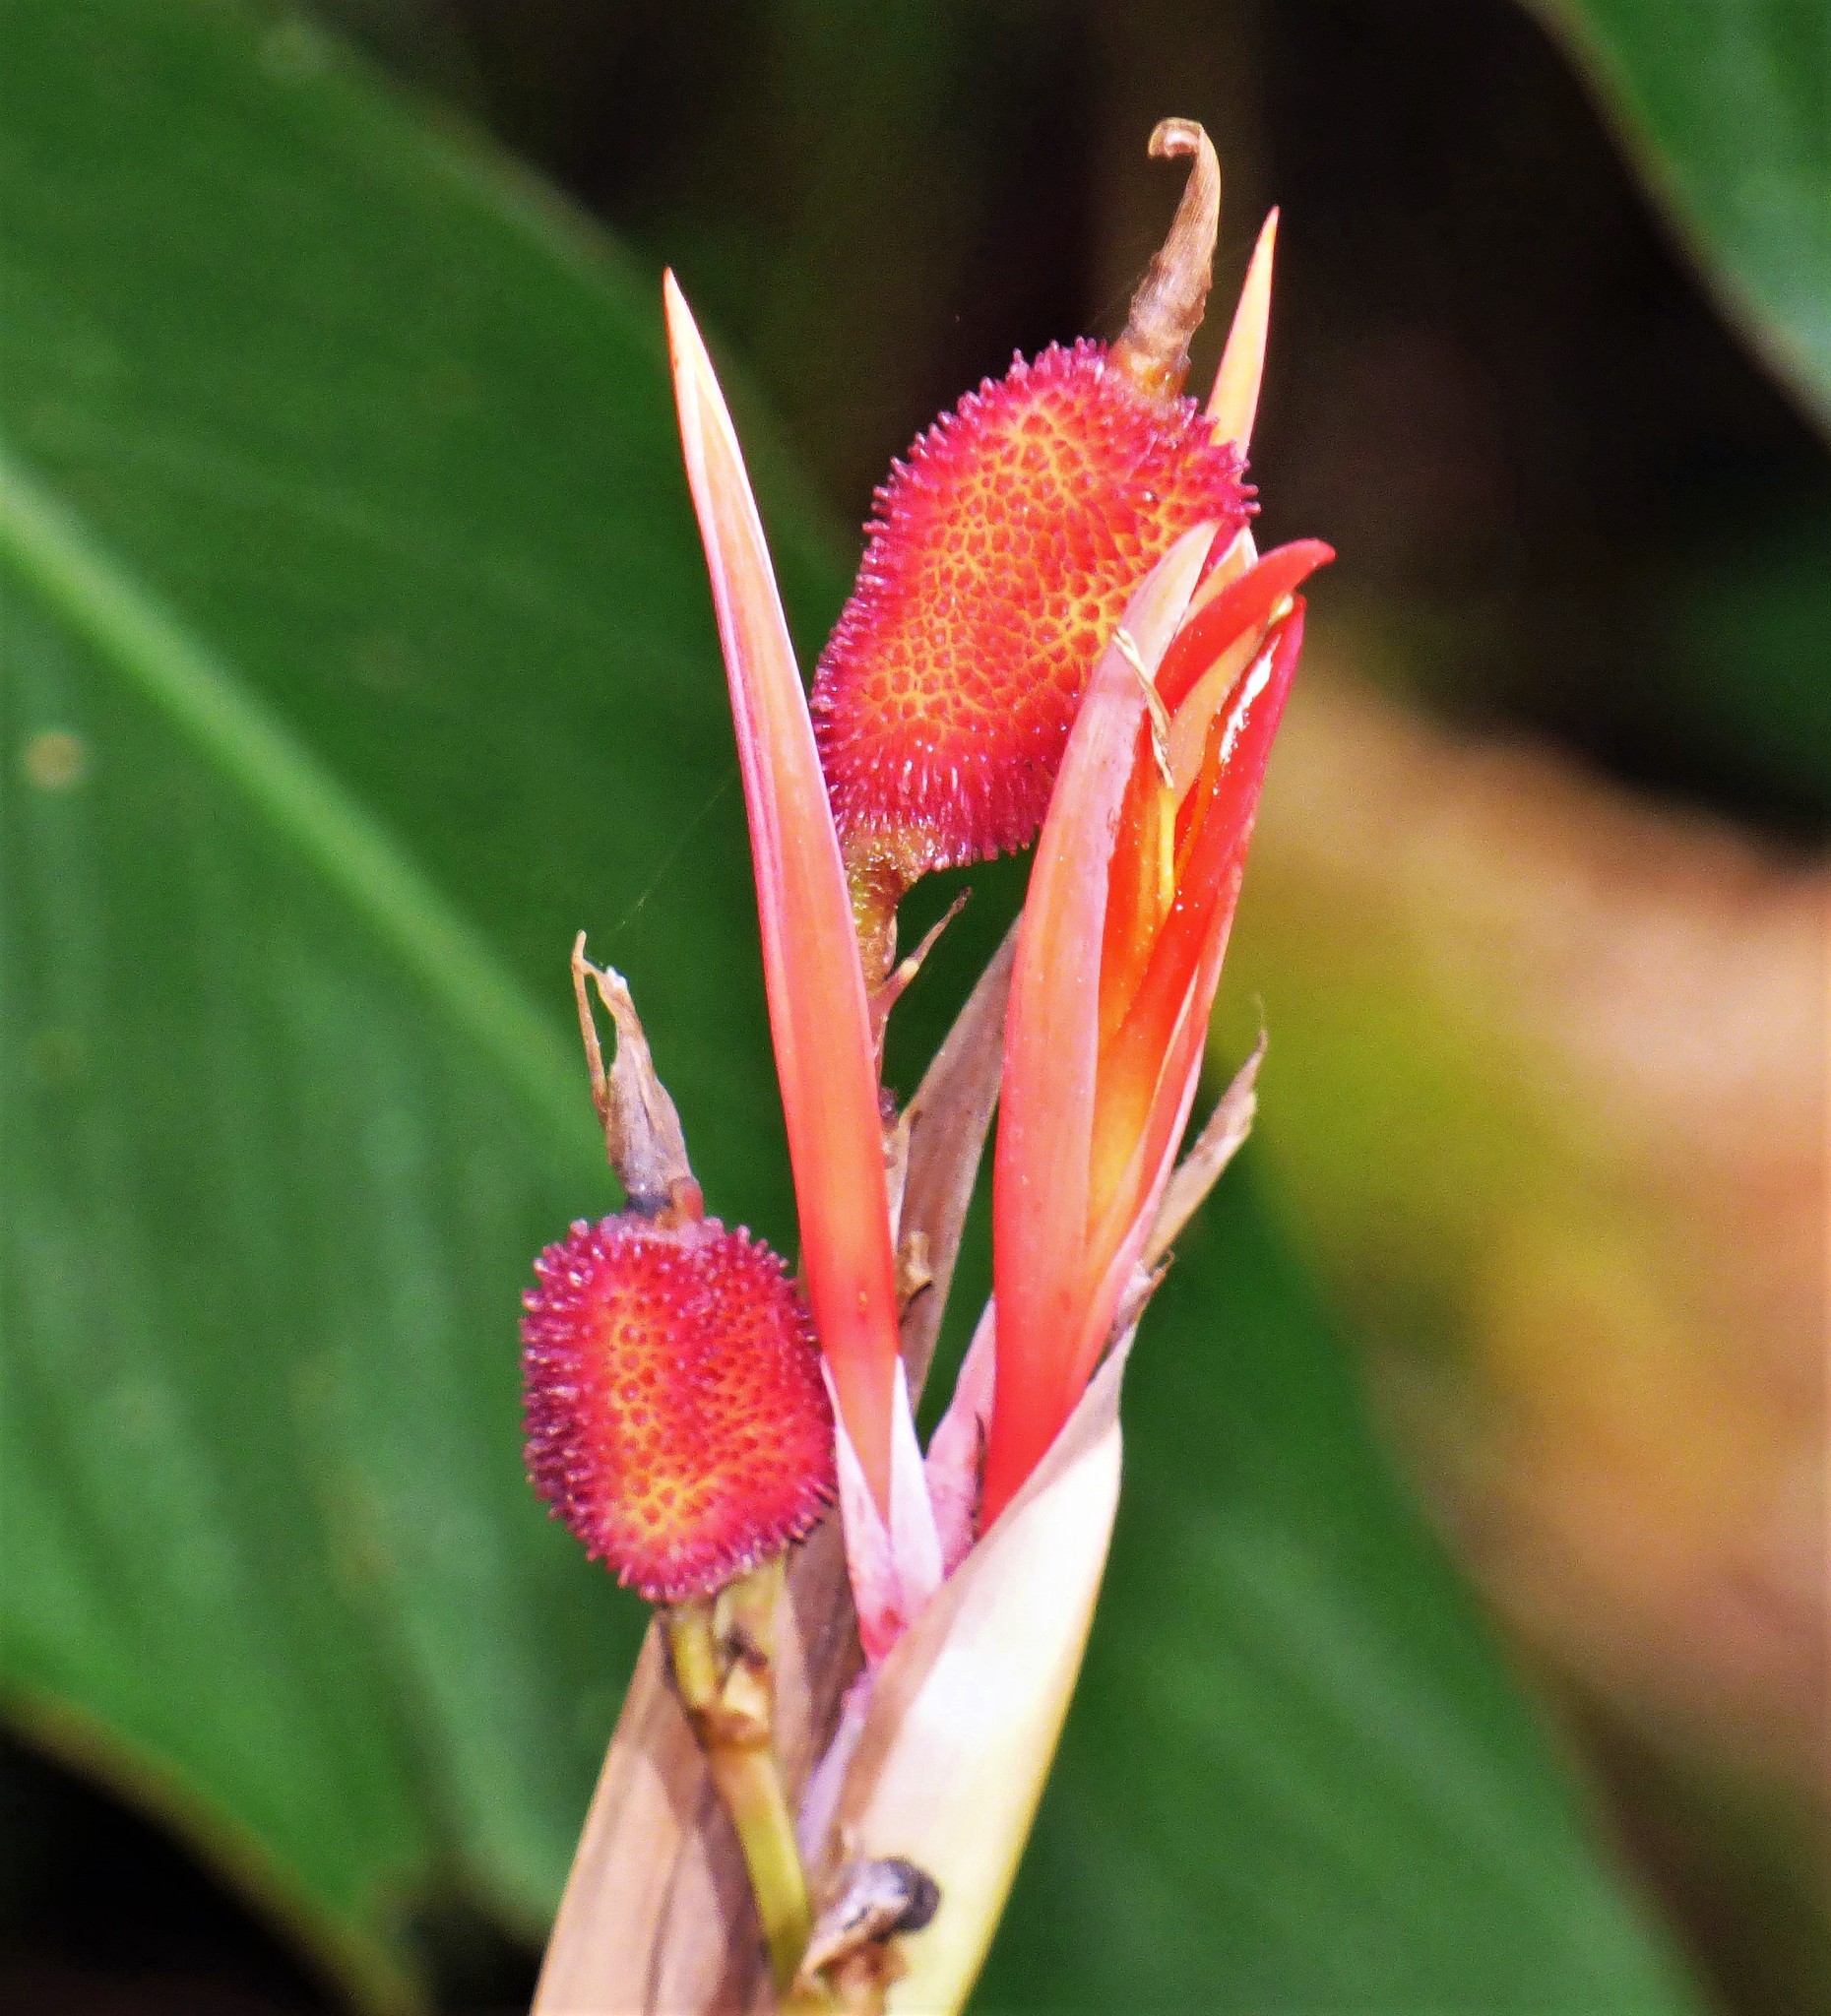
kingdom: Plantae
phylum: Tracheophyta
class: Liliopsida
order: Zingiberales
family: Cannaceae
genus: Canna
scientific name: Canna indica
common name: Indian shot
